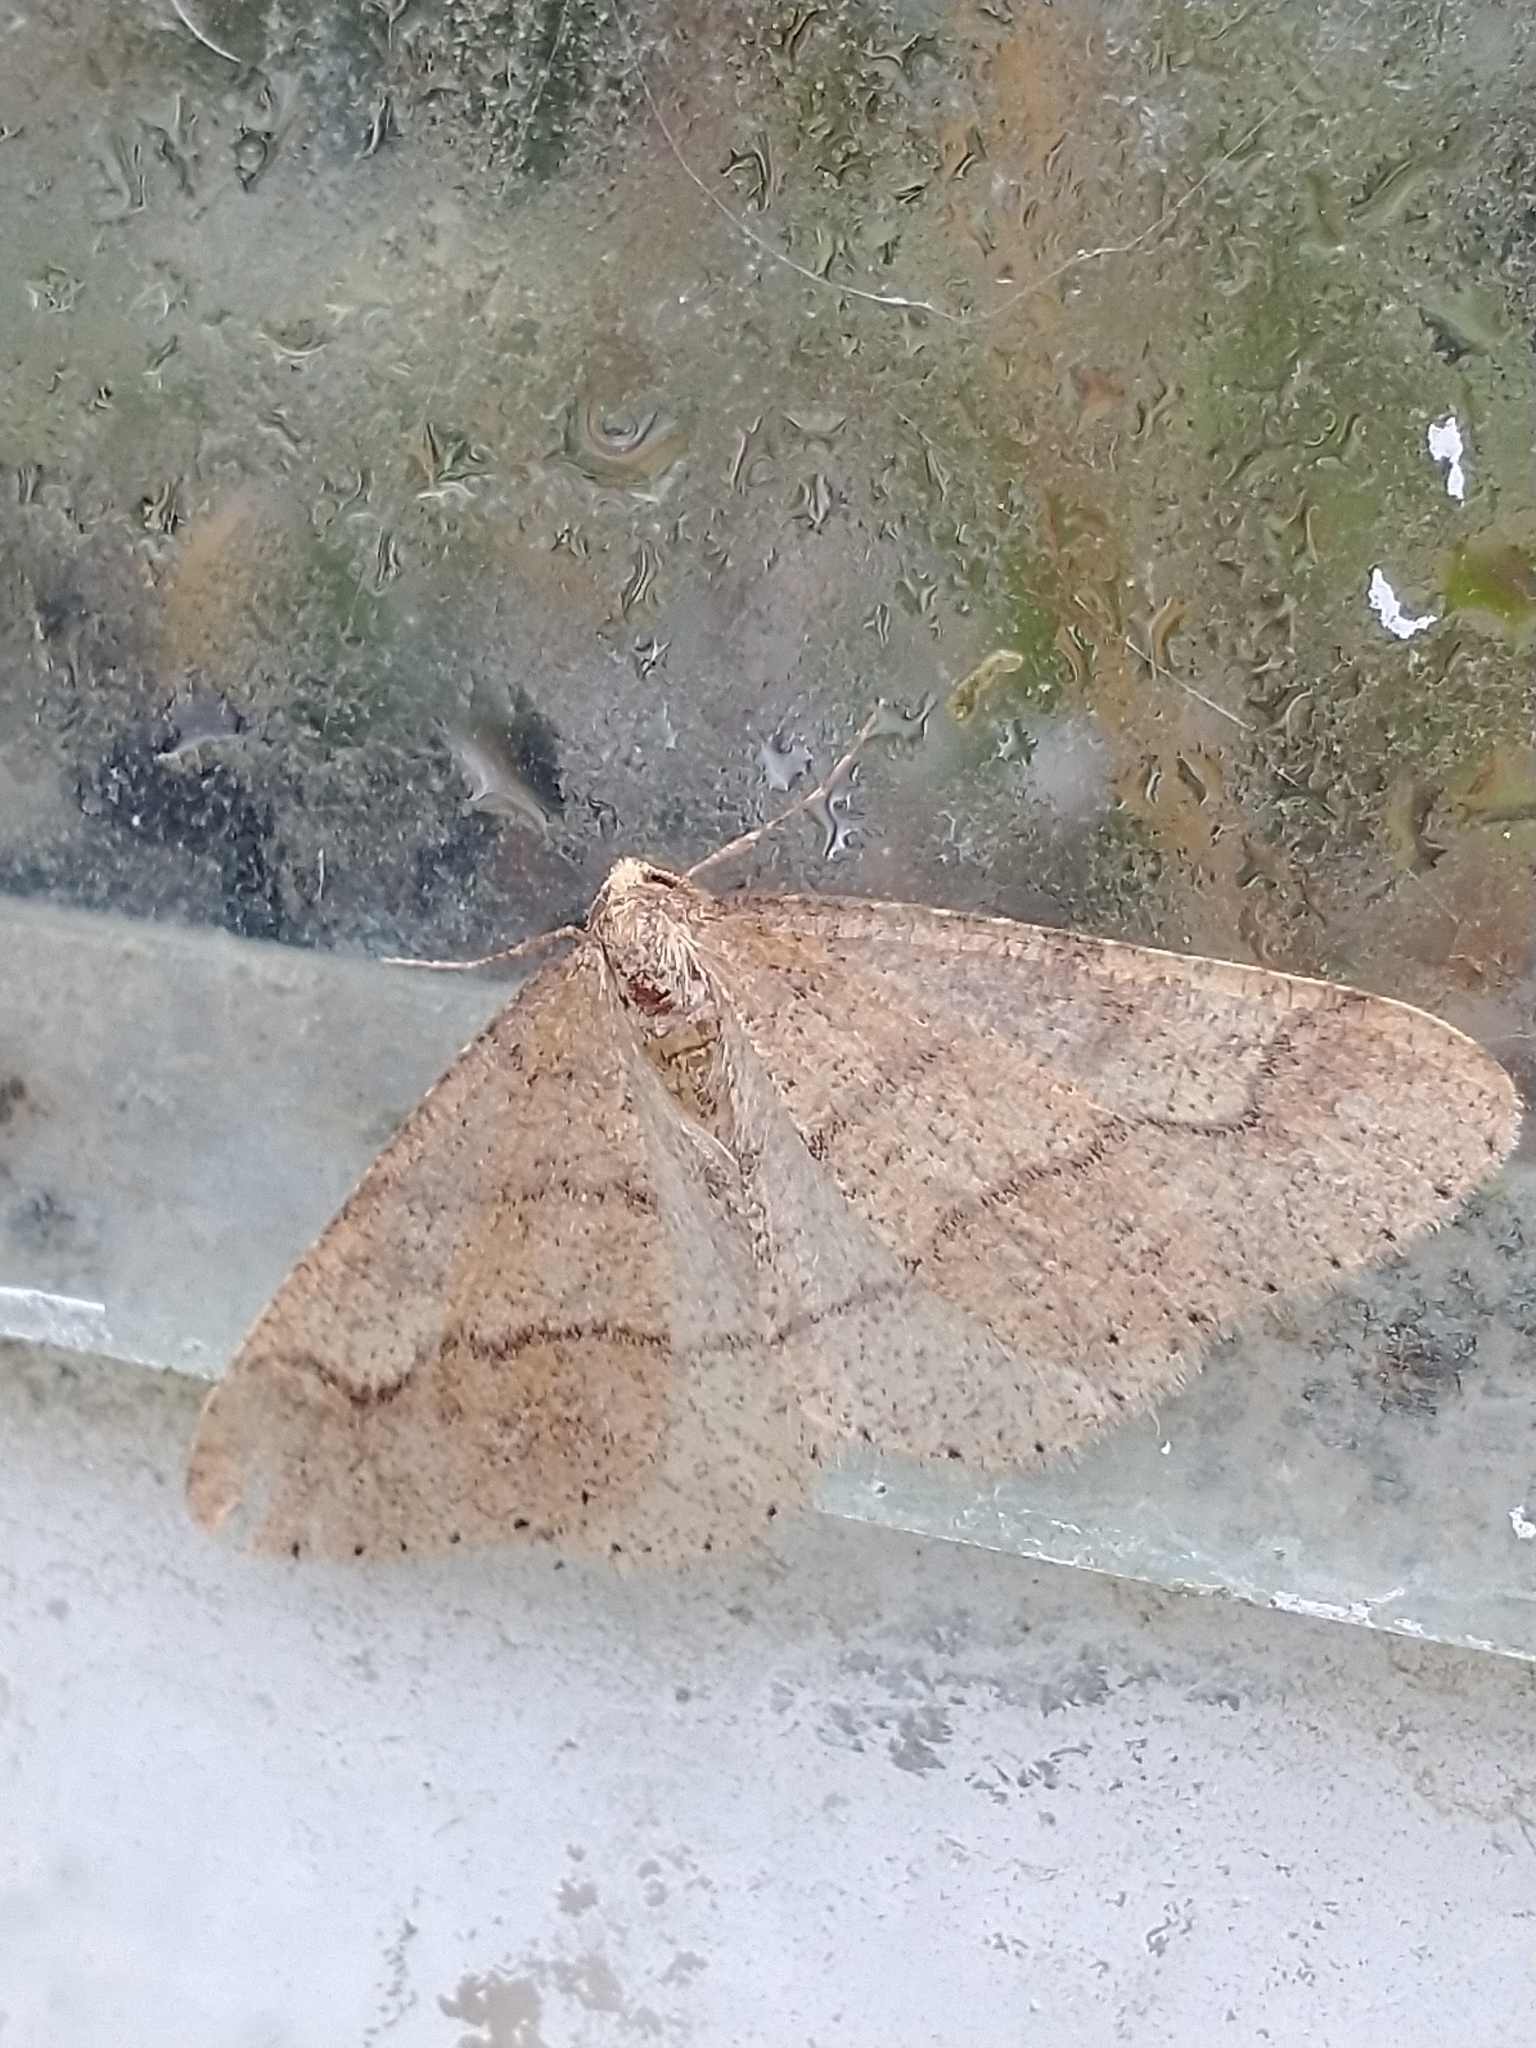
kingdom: Animalia
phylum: Arthropoda
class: Insecta
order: Lepidoptera
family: Geometridae
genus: Agriopis
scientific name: Agriopis marginaria
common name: Dotted border
